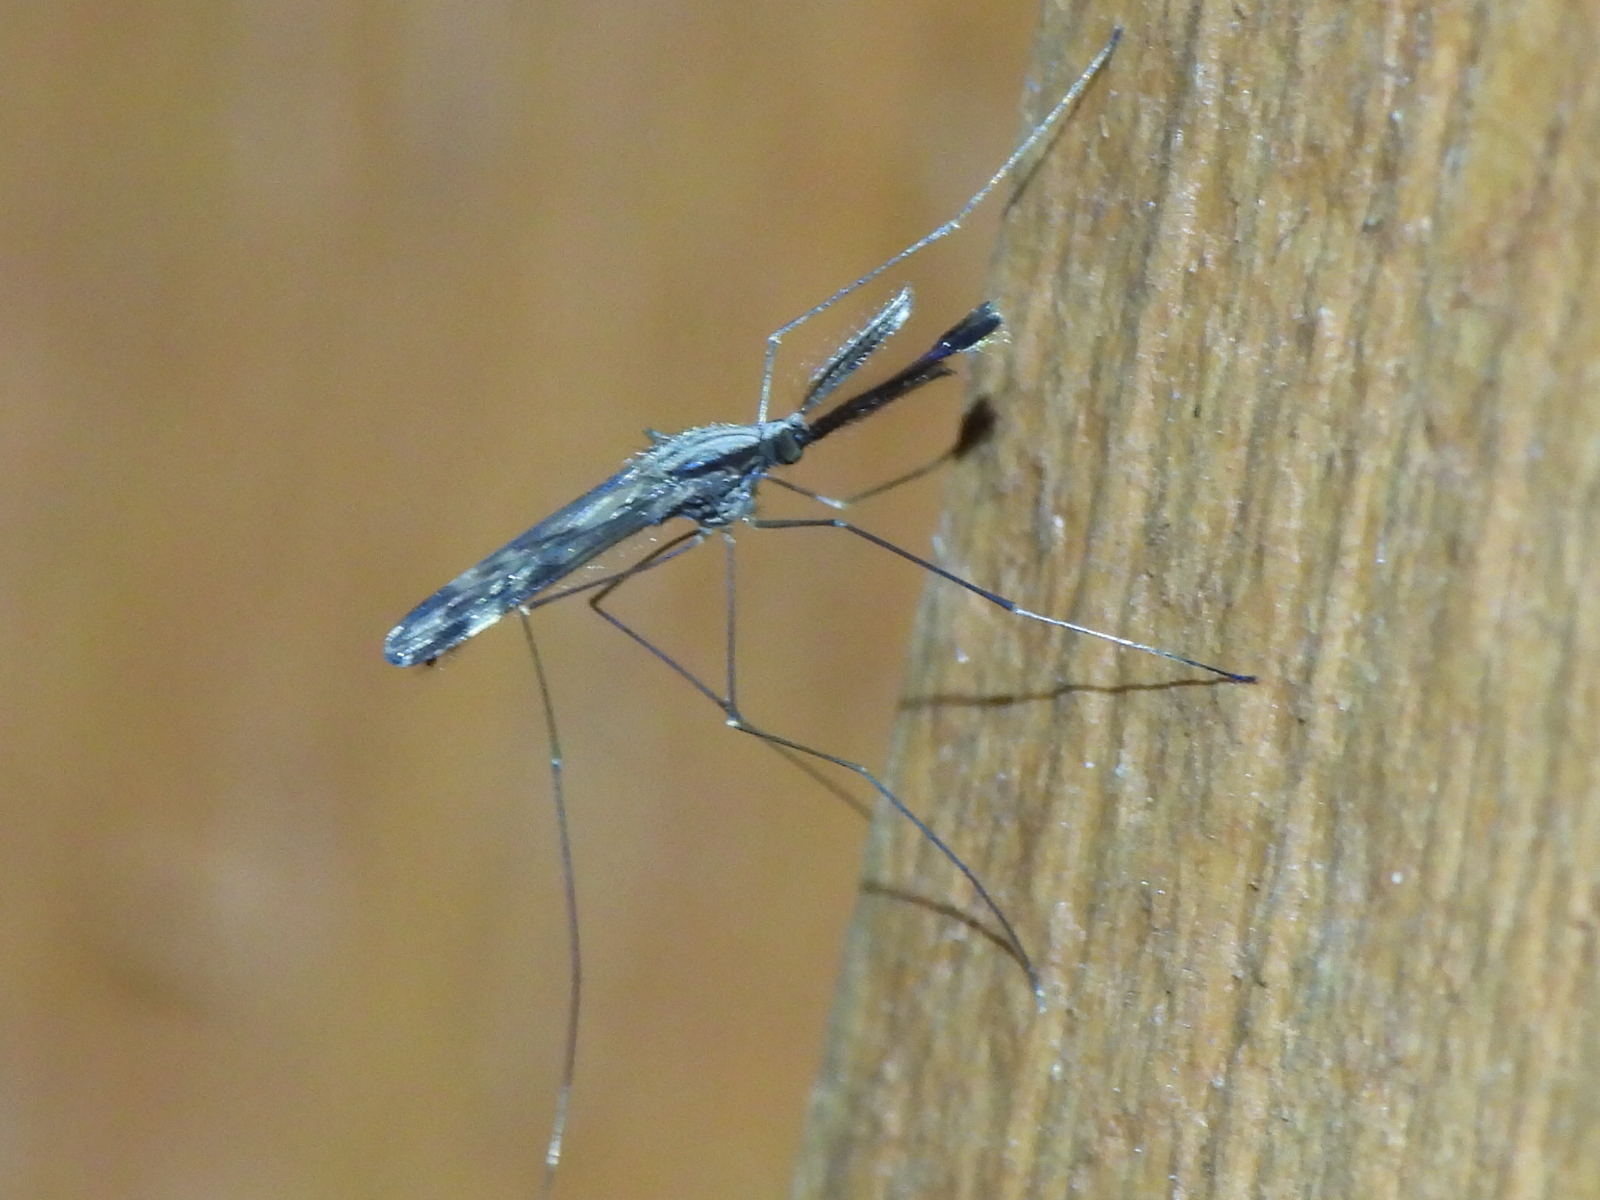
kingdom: Animalia
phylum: Arthropoda
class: Insecta
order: Diptera
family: Culicidae
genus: Anopheles
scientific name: Anopheles punctipennis
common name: Woodland malaria mosquito
